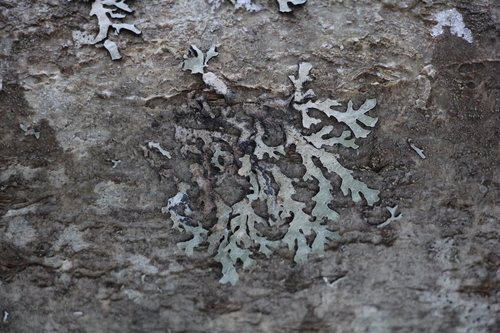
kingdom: Fungi
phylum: Ascomycota
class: Lecanoromycetes
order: Lecanorales
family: Parmeliaceae
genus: Parmelia
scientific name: Parmelia
